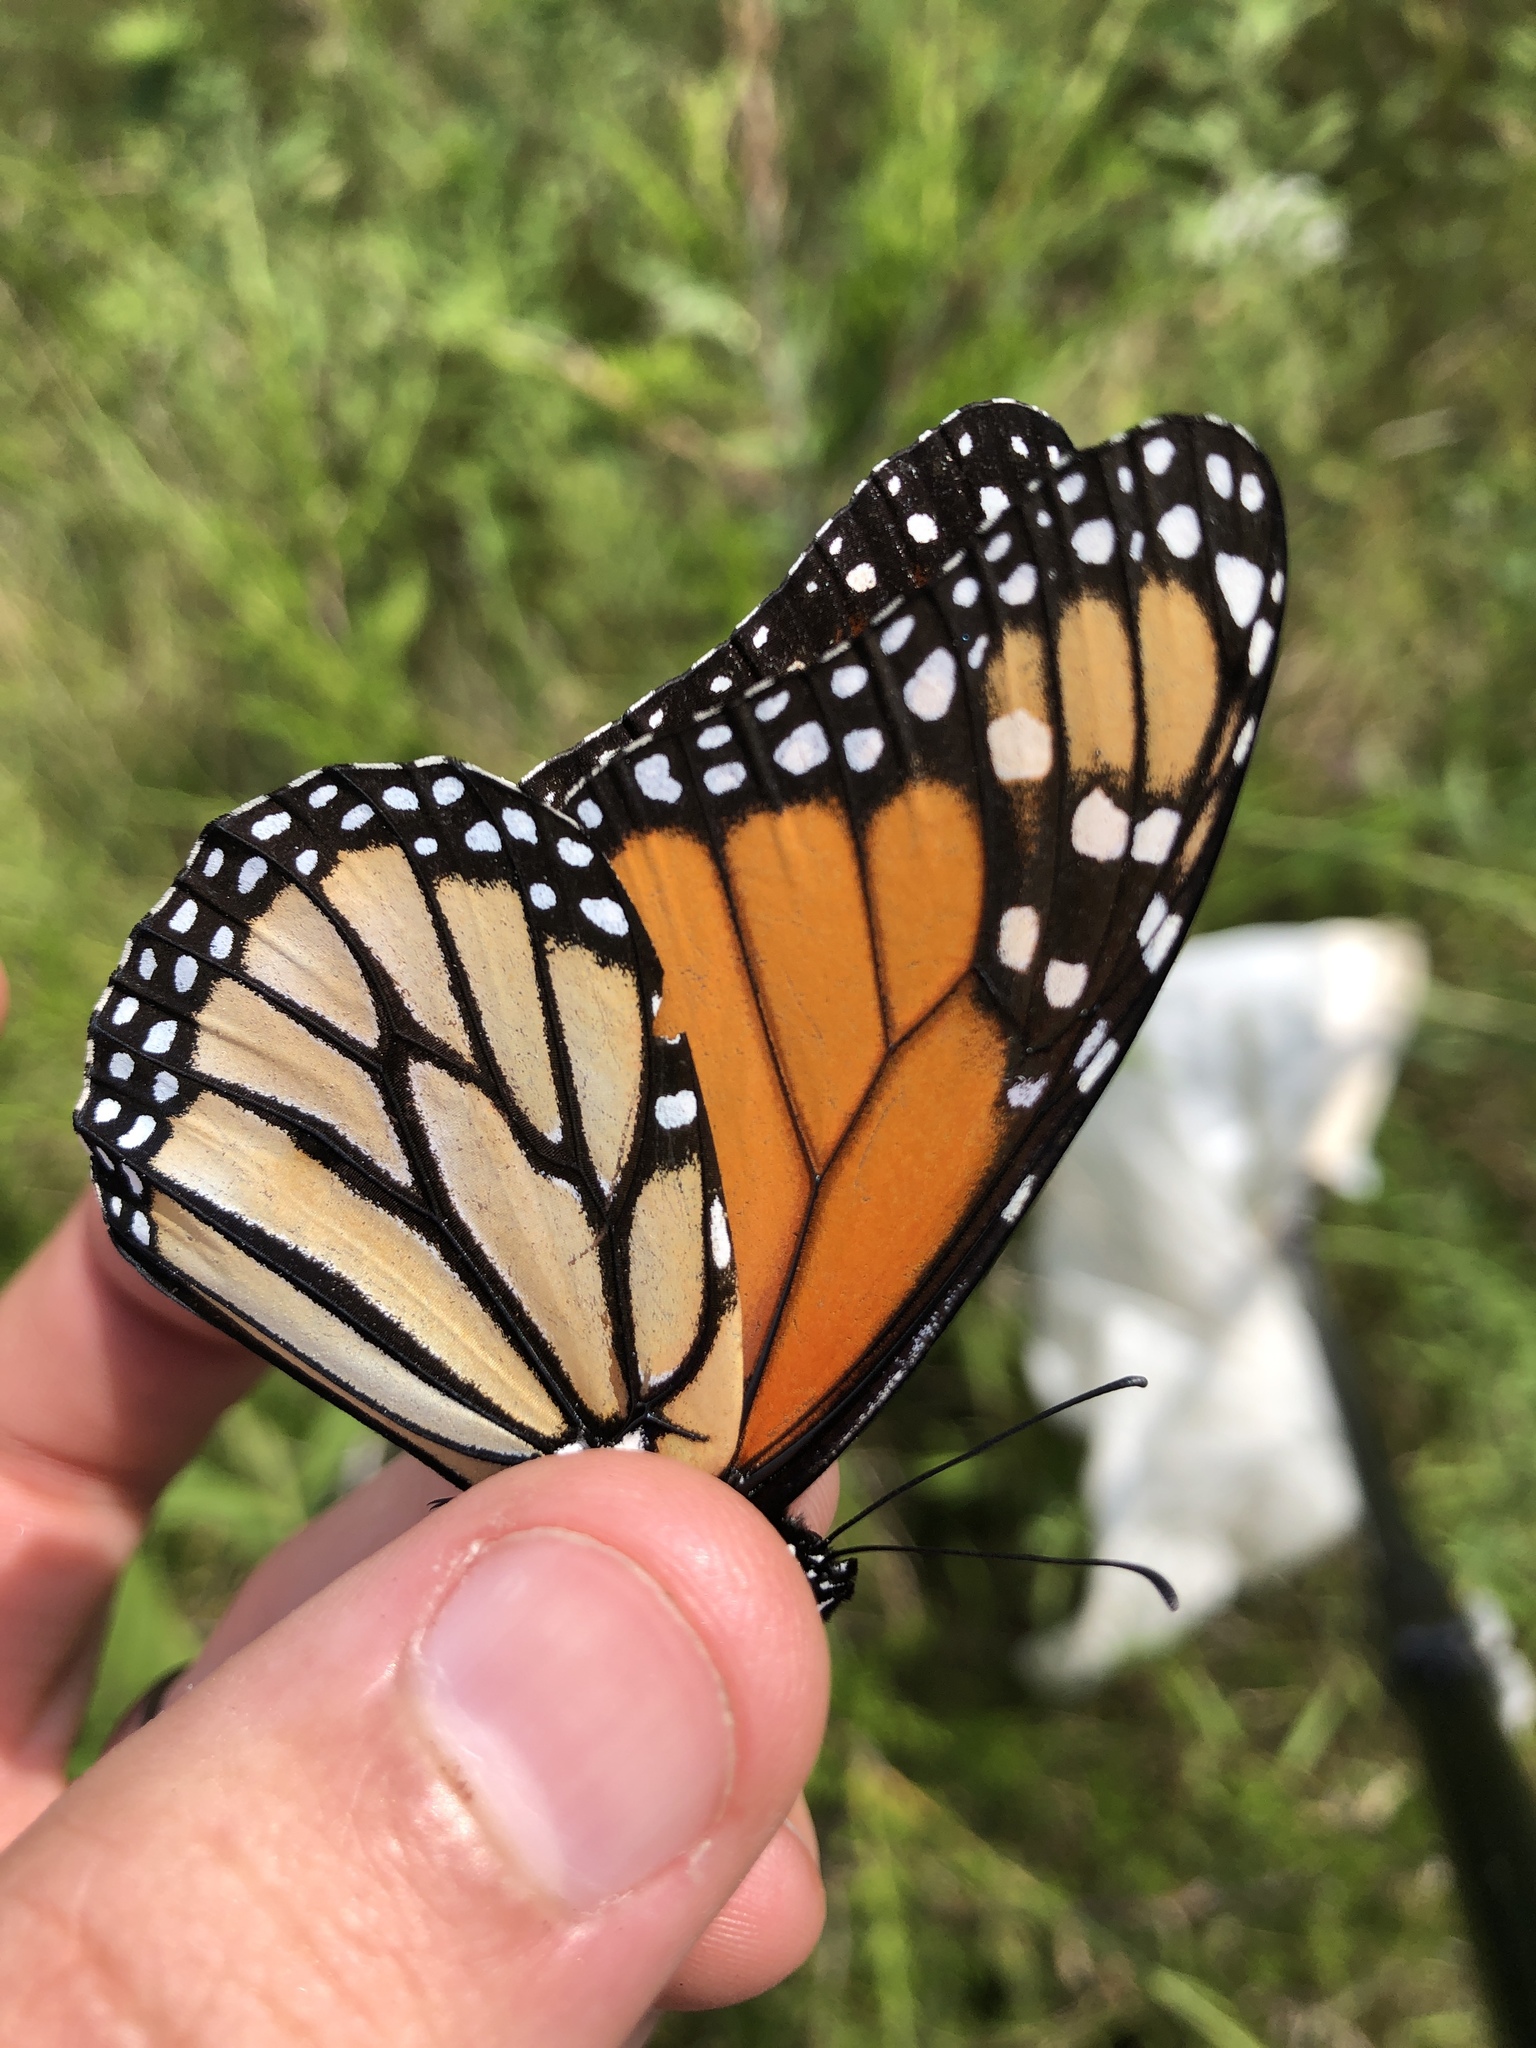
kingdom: Animalia
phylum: Arthropoda
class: Insecta
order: Lepidoptera
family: Nymphalidae
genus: Danaus
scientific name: Danaus plexippus
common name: Monarch
